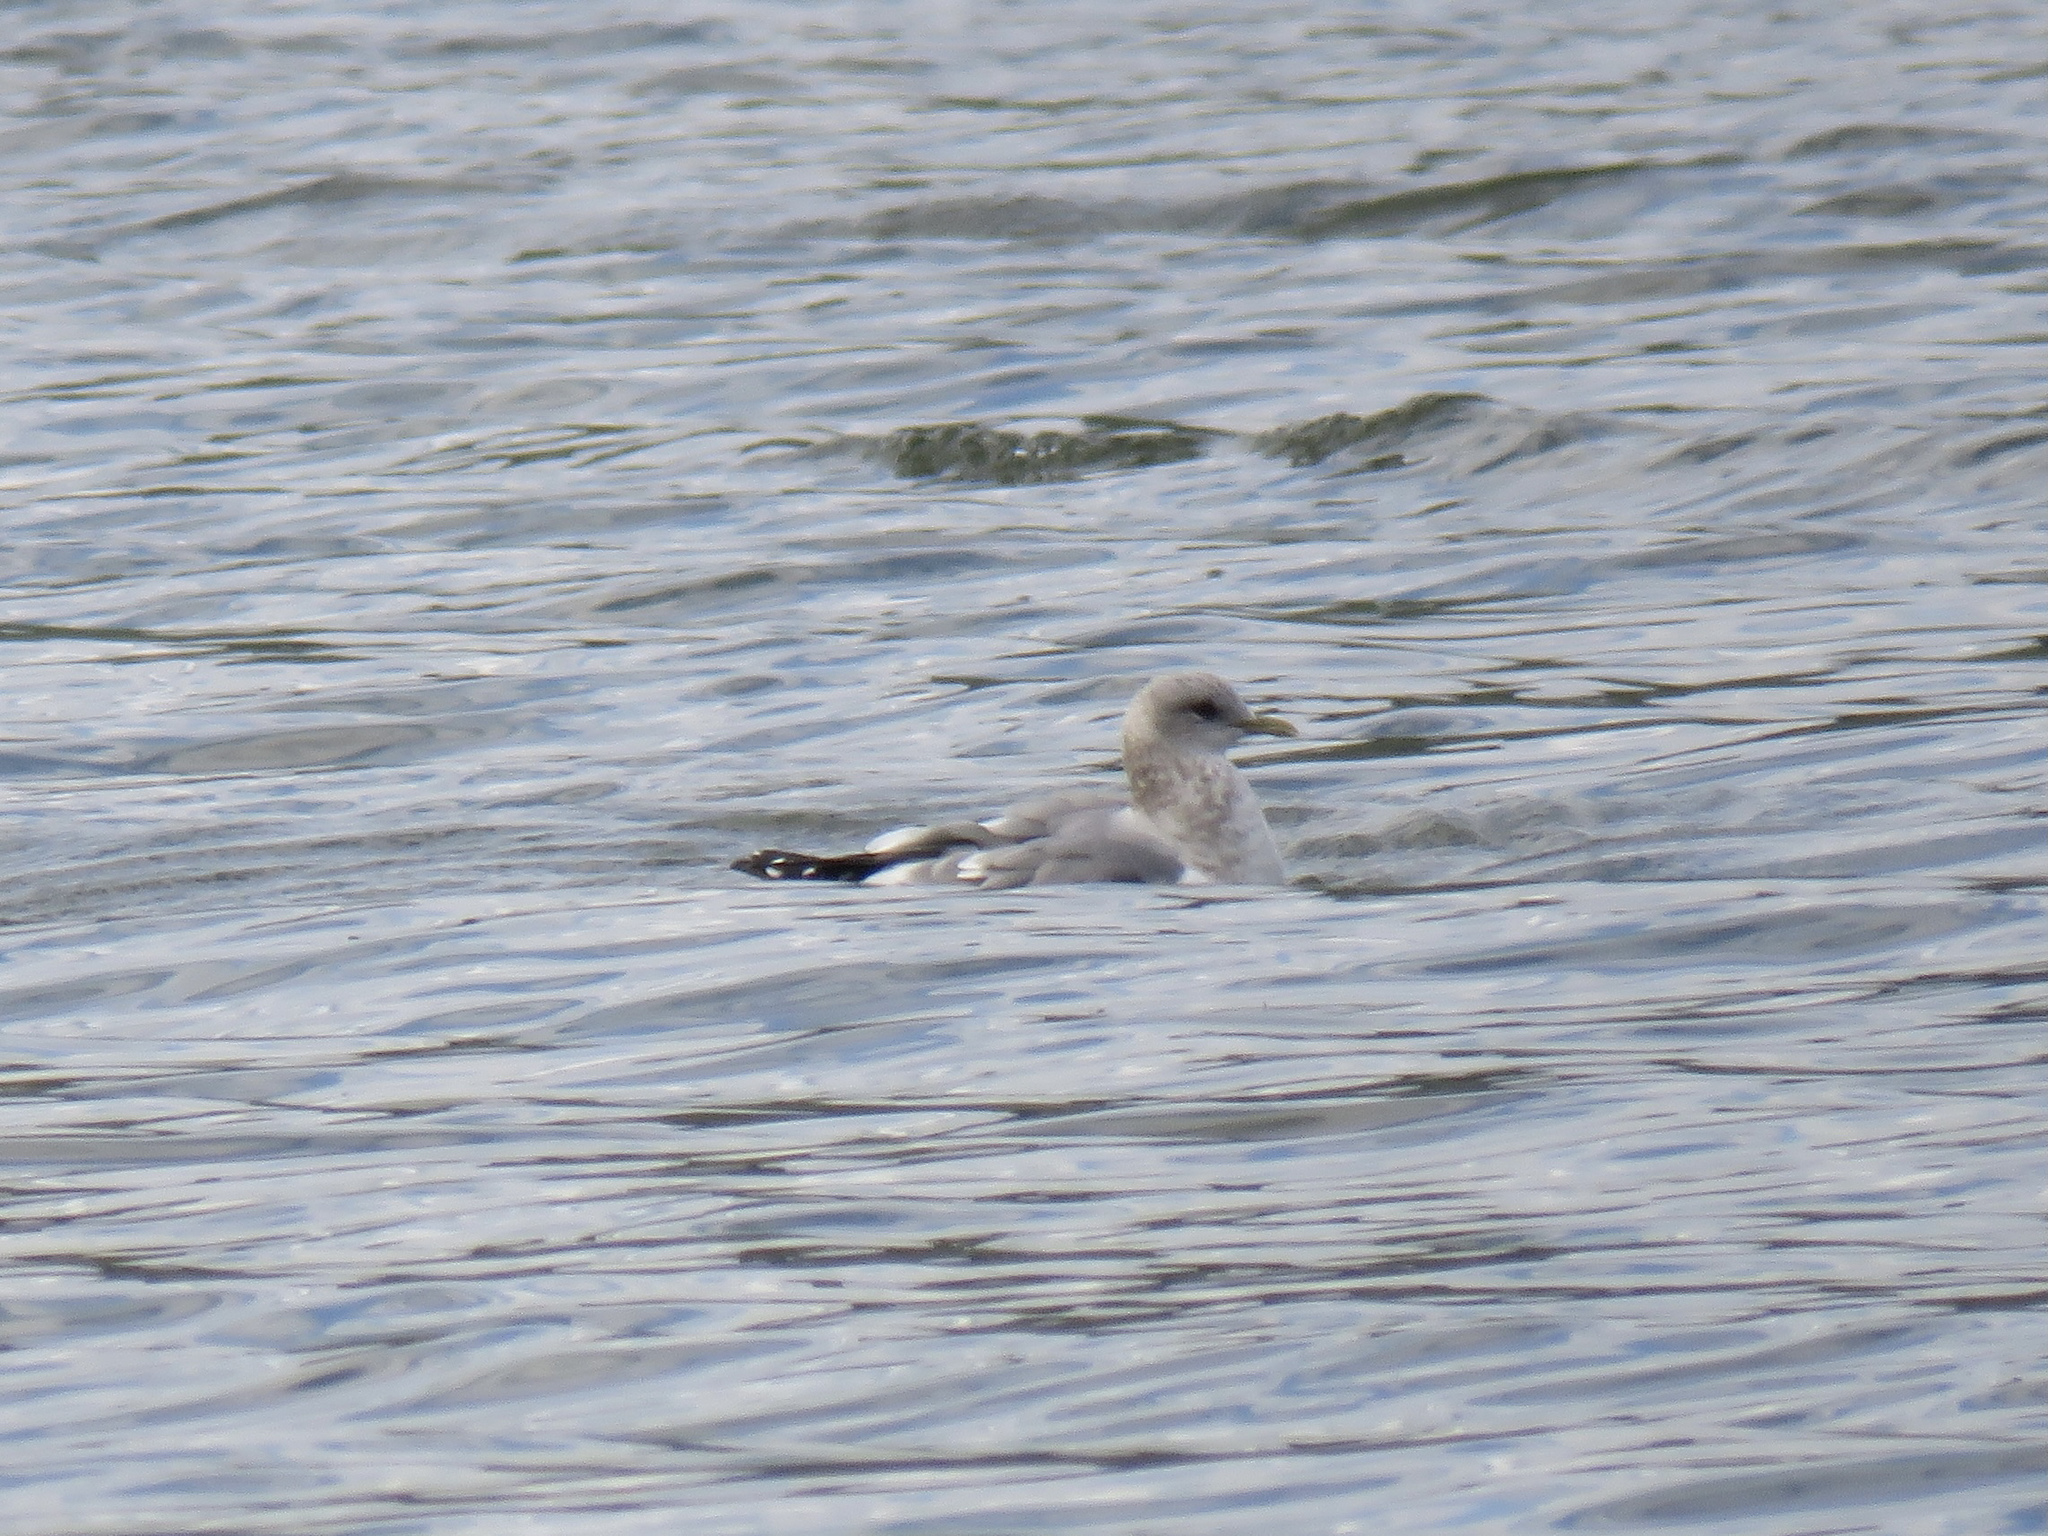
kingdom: Animalia
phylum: Chordata
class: Aves
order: Charadriiformes
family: Laridae
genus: Larus
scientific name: Larus brachyrhynchus
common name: Short-billed gull
